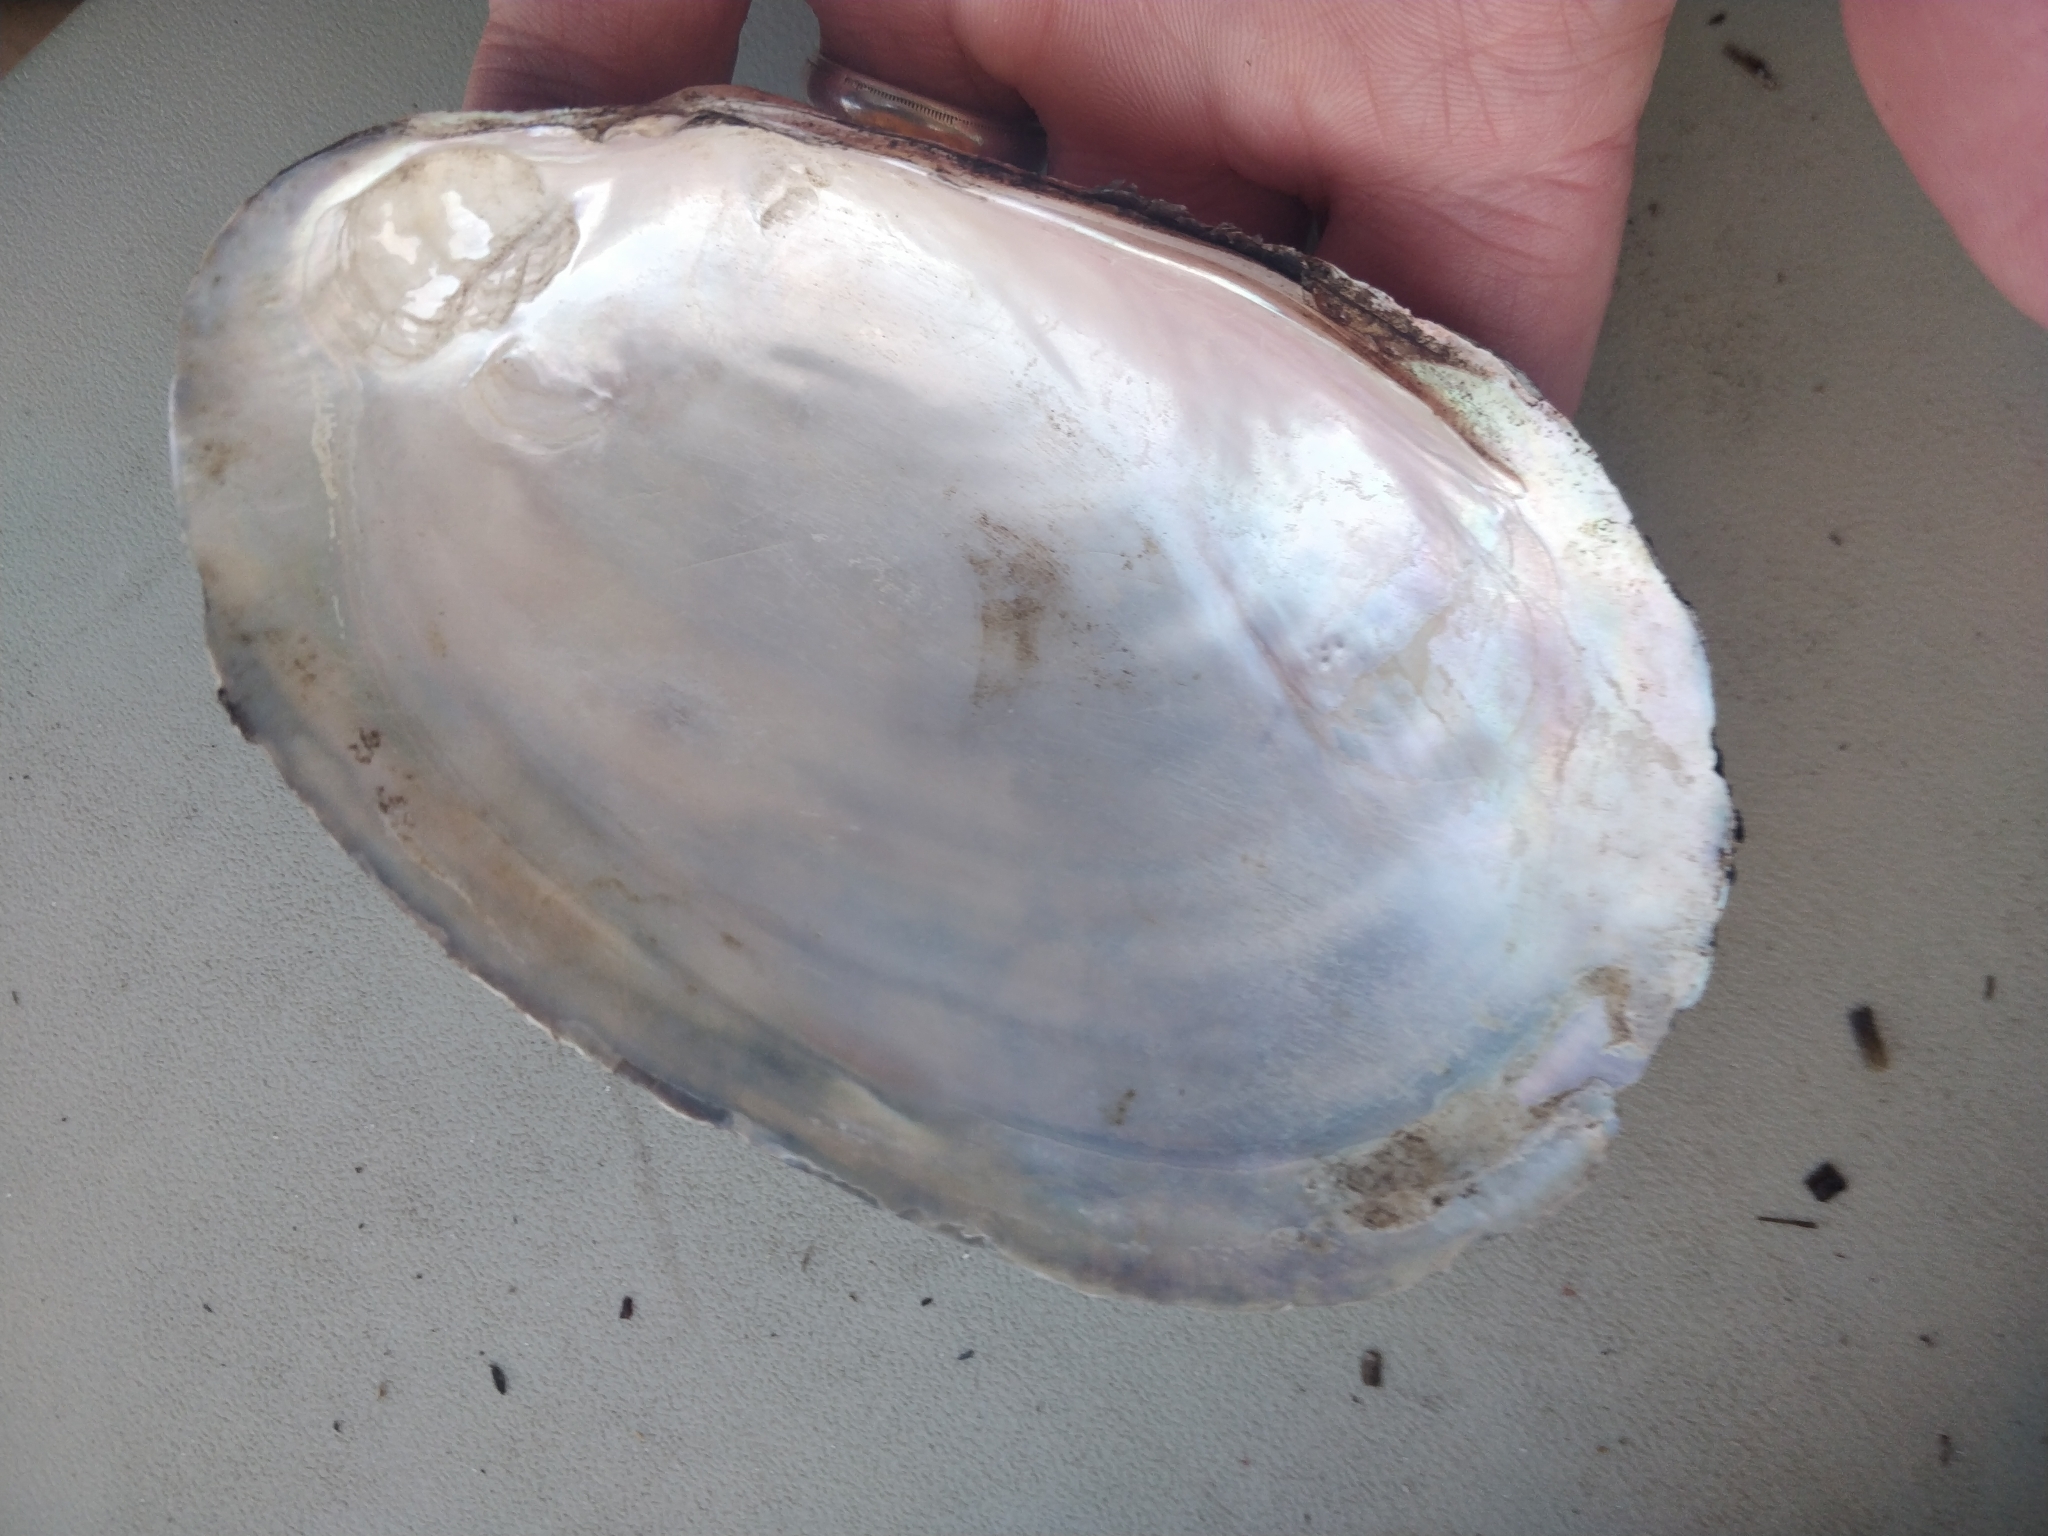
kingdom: Animalia
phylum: Mollusca
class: Bivalvia
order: Unionida
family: Unionidae
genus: Potamilus
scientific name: Potamilus fragilis
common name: Fragile papershell
